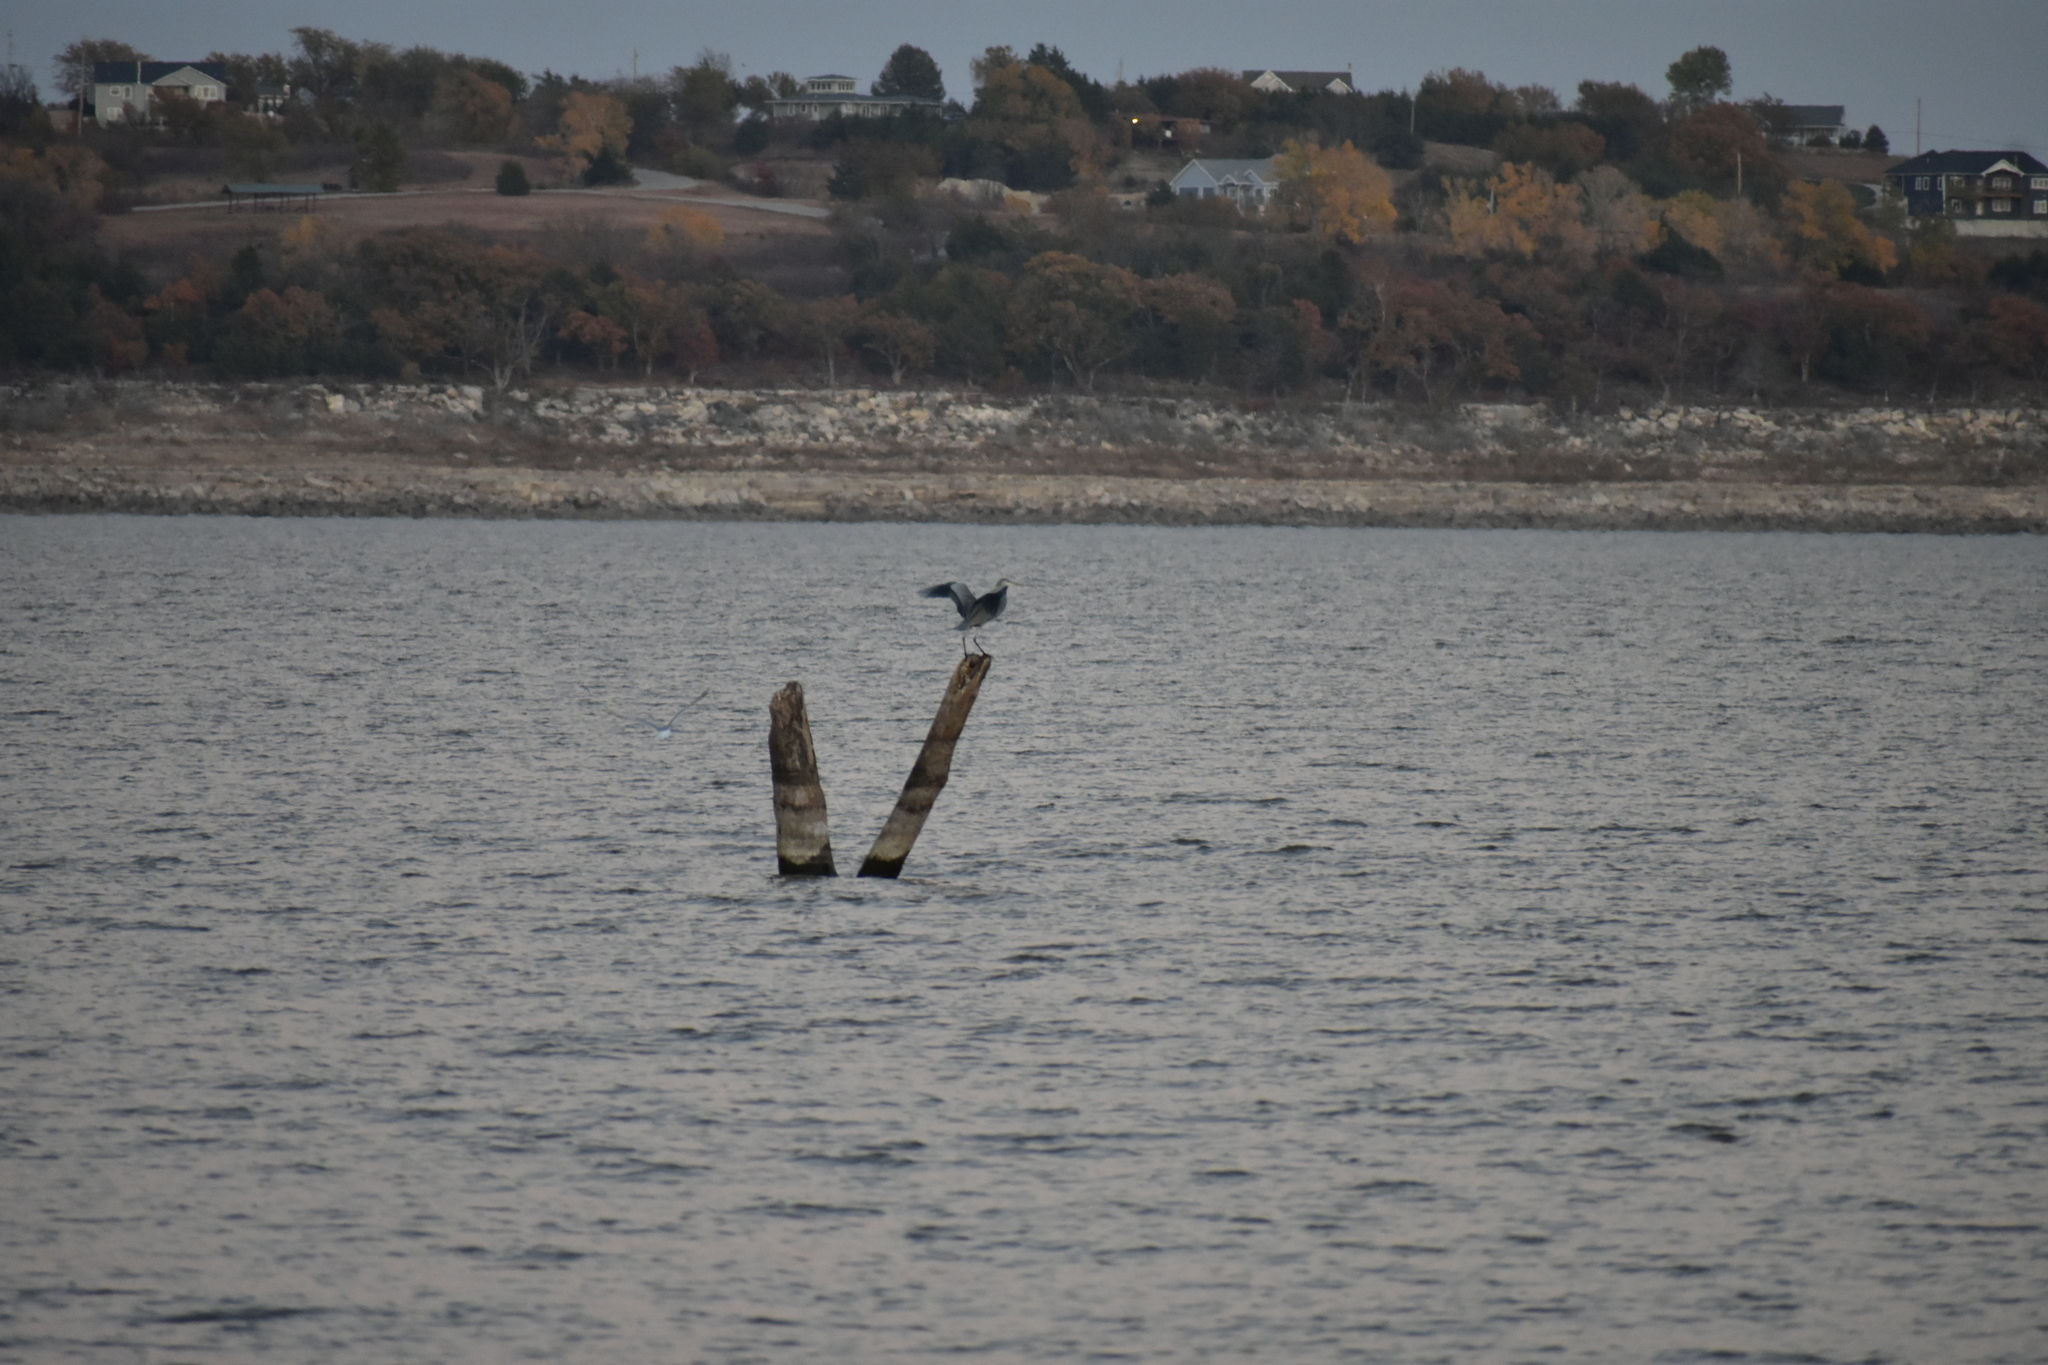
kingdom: Animalia
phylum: Chordata
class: Aves
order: Pelecaniformes
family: Ardeidae
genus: Ardea
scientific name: Ardea herodias
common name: Great blue heron
